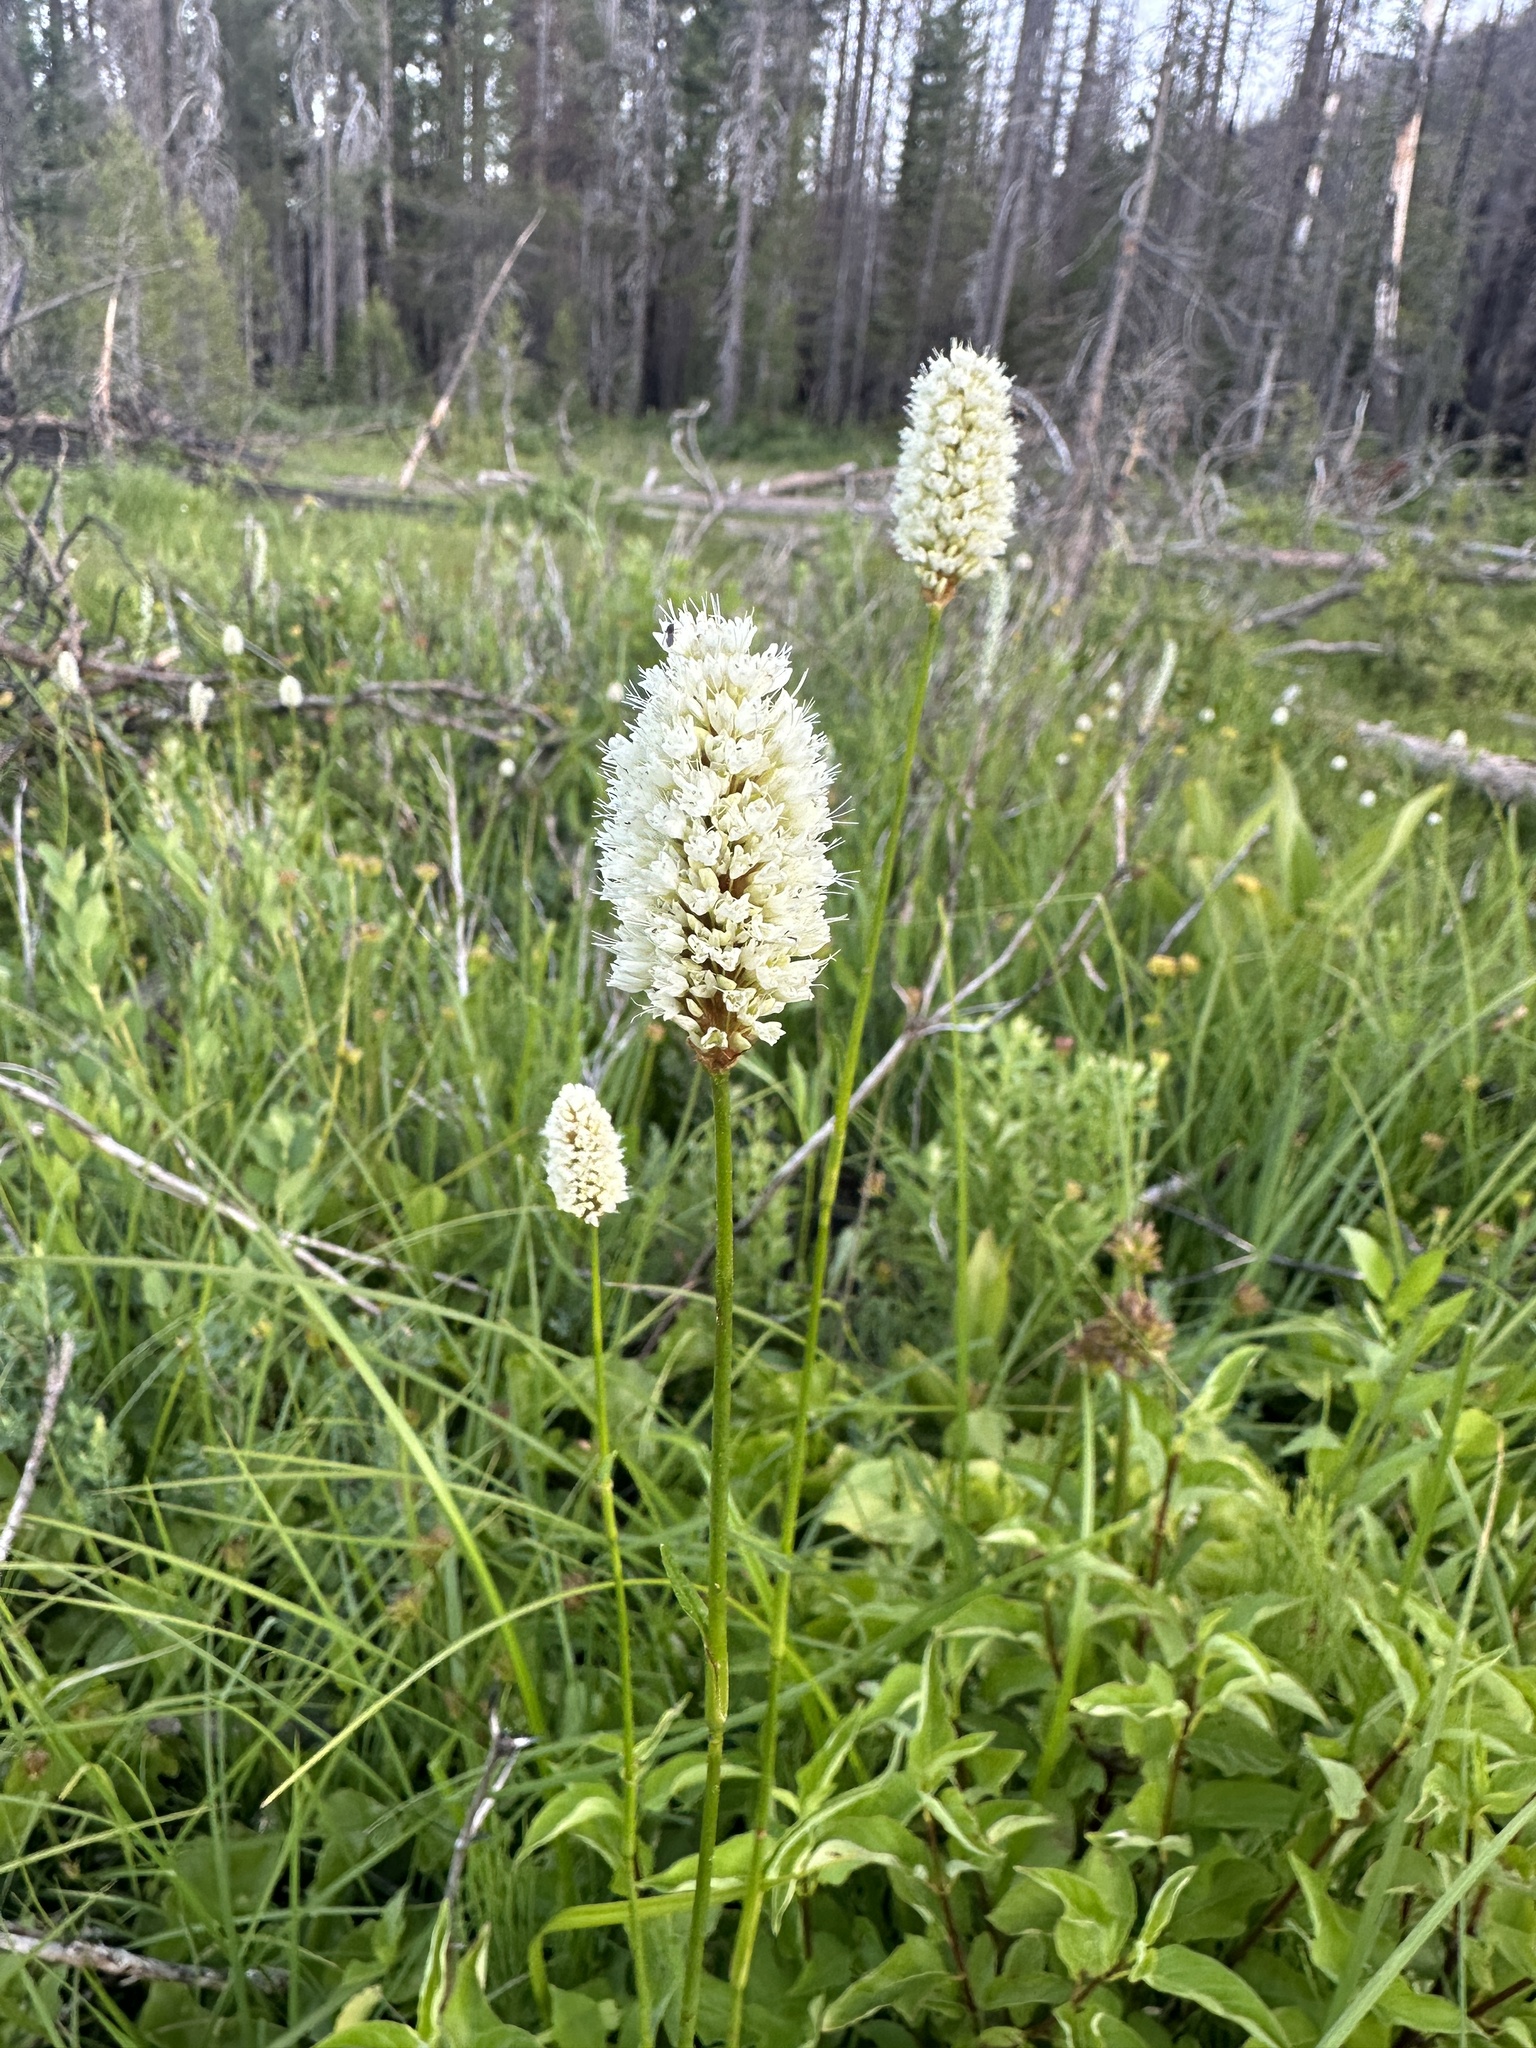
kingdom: Plantae
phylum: Tracheophyta
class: Magnoliopsida
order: Caryophyllales
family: Polygonaceae
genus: Bistorta
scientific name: Bistorta bistortoides
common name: American bistort
